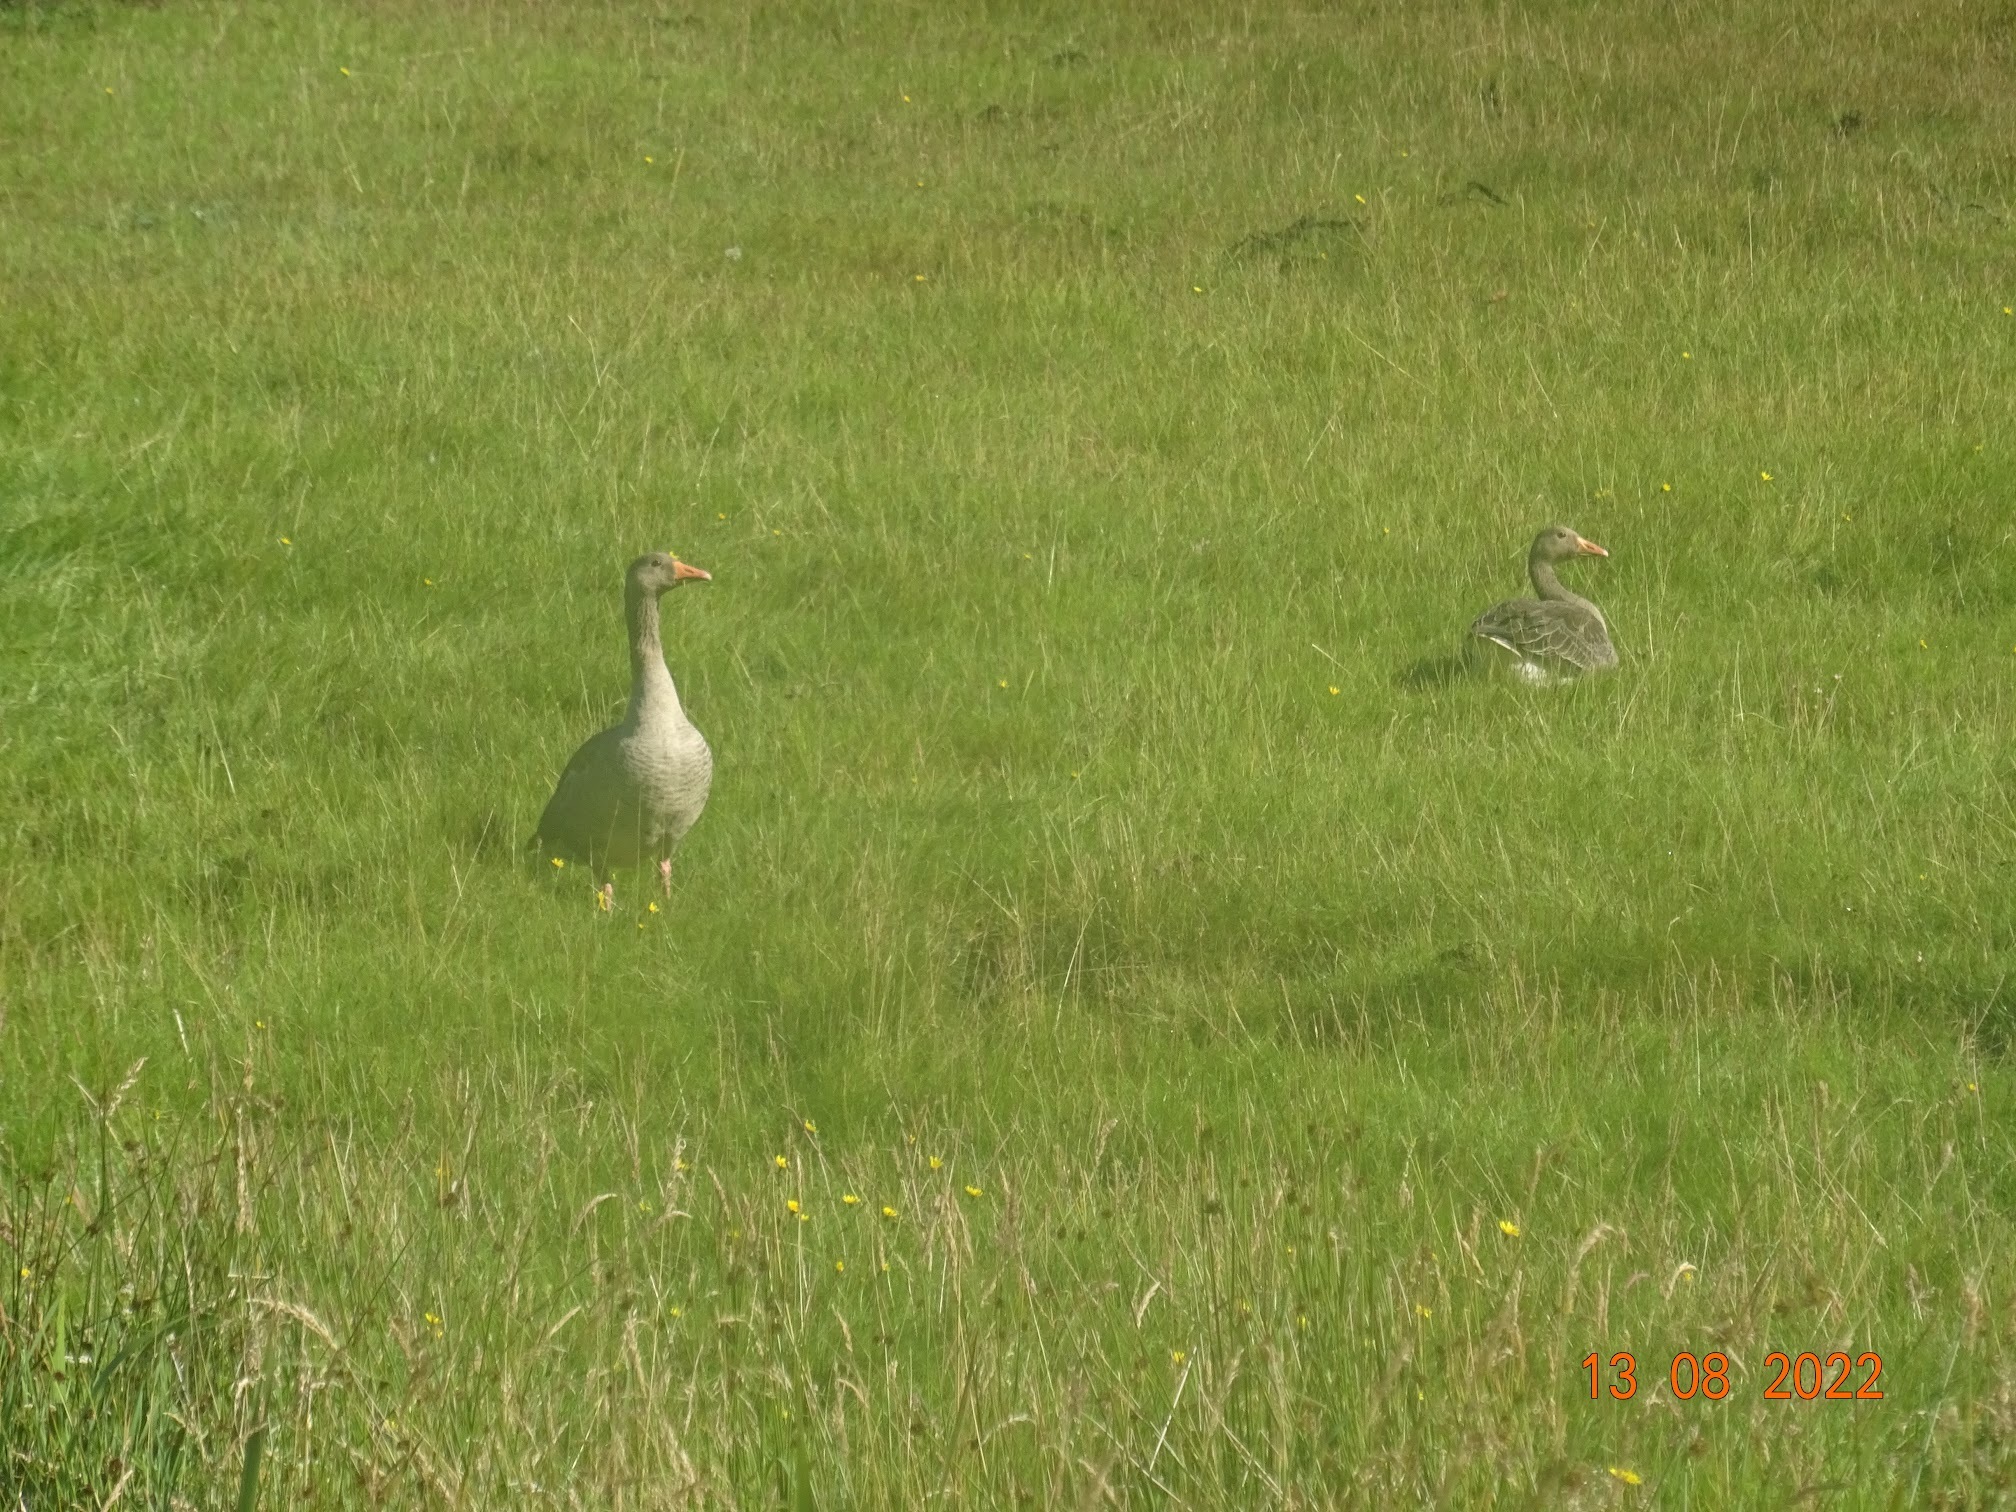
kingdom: Animalia
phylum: Chordata
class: Aves
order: Anseriformes
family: Anatidae
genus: Anser
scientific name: Anser anser
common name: Greylag goose
